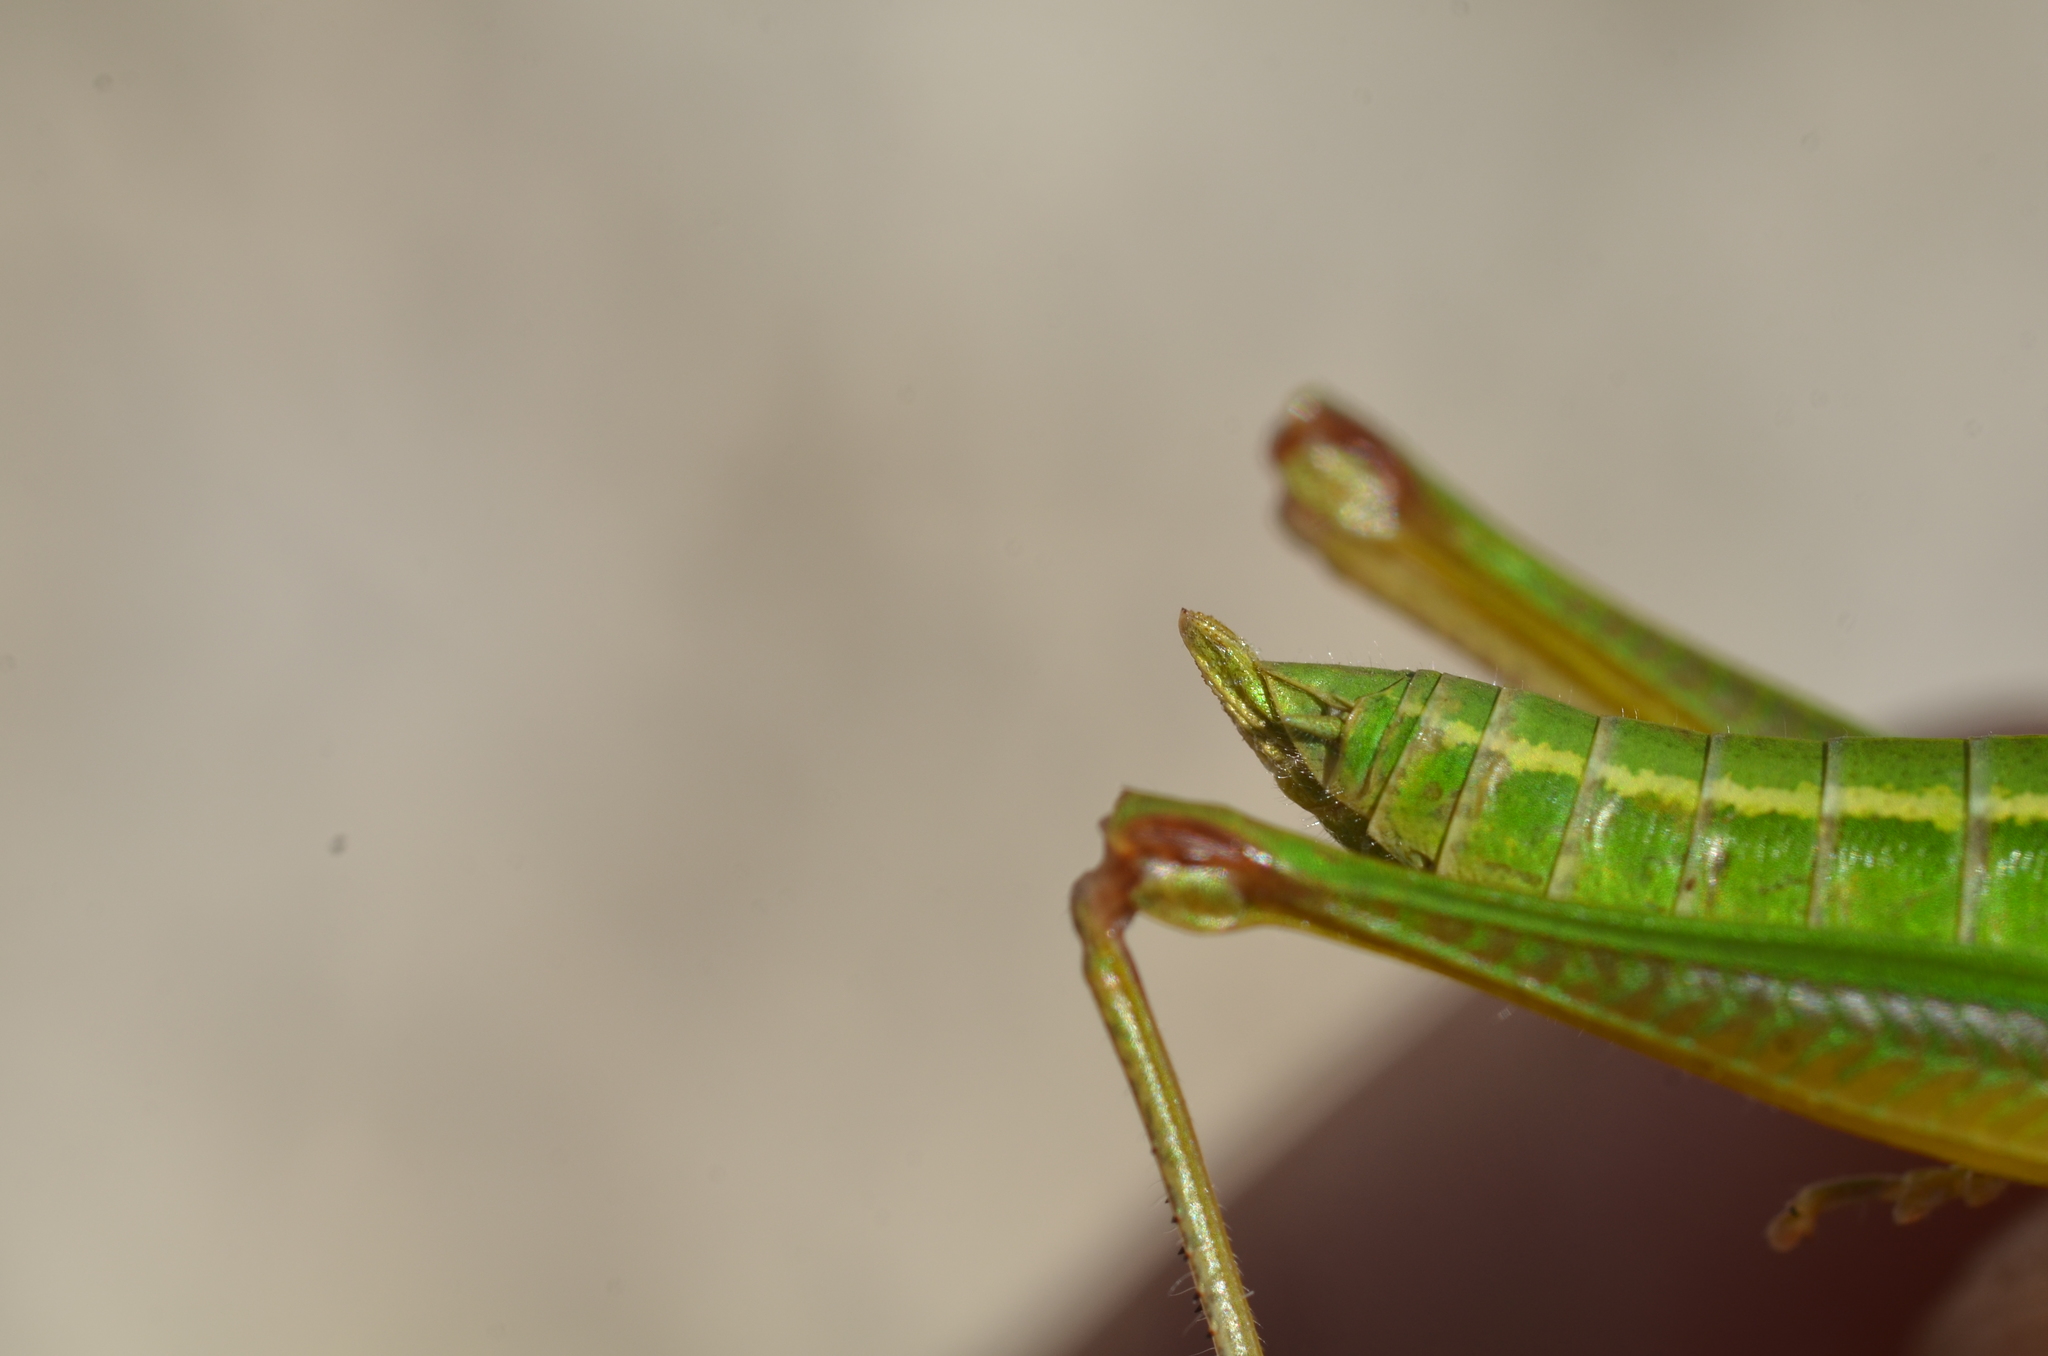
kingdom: Animalia
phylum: Arthropoda
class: Insecta
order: Orthoptera
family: Acrididae
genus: Euthystira
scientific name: Euthystira brachyptera
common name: Small gold grasshopper
